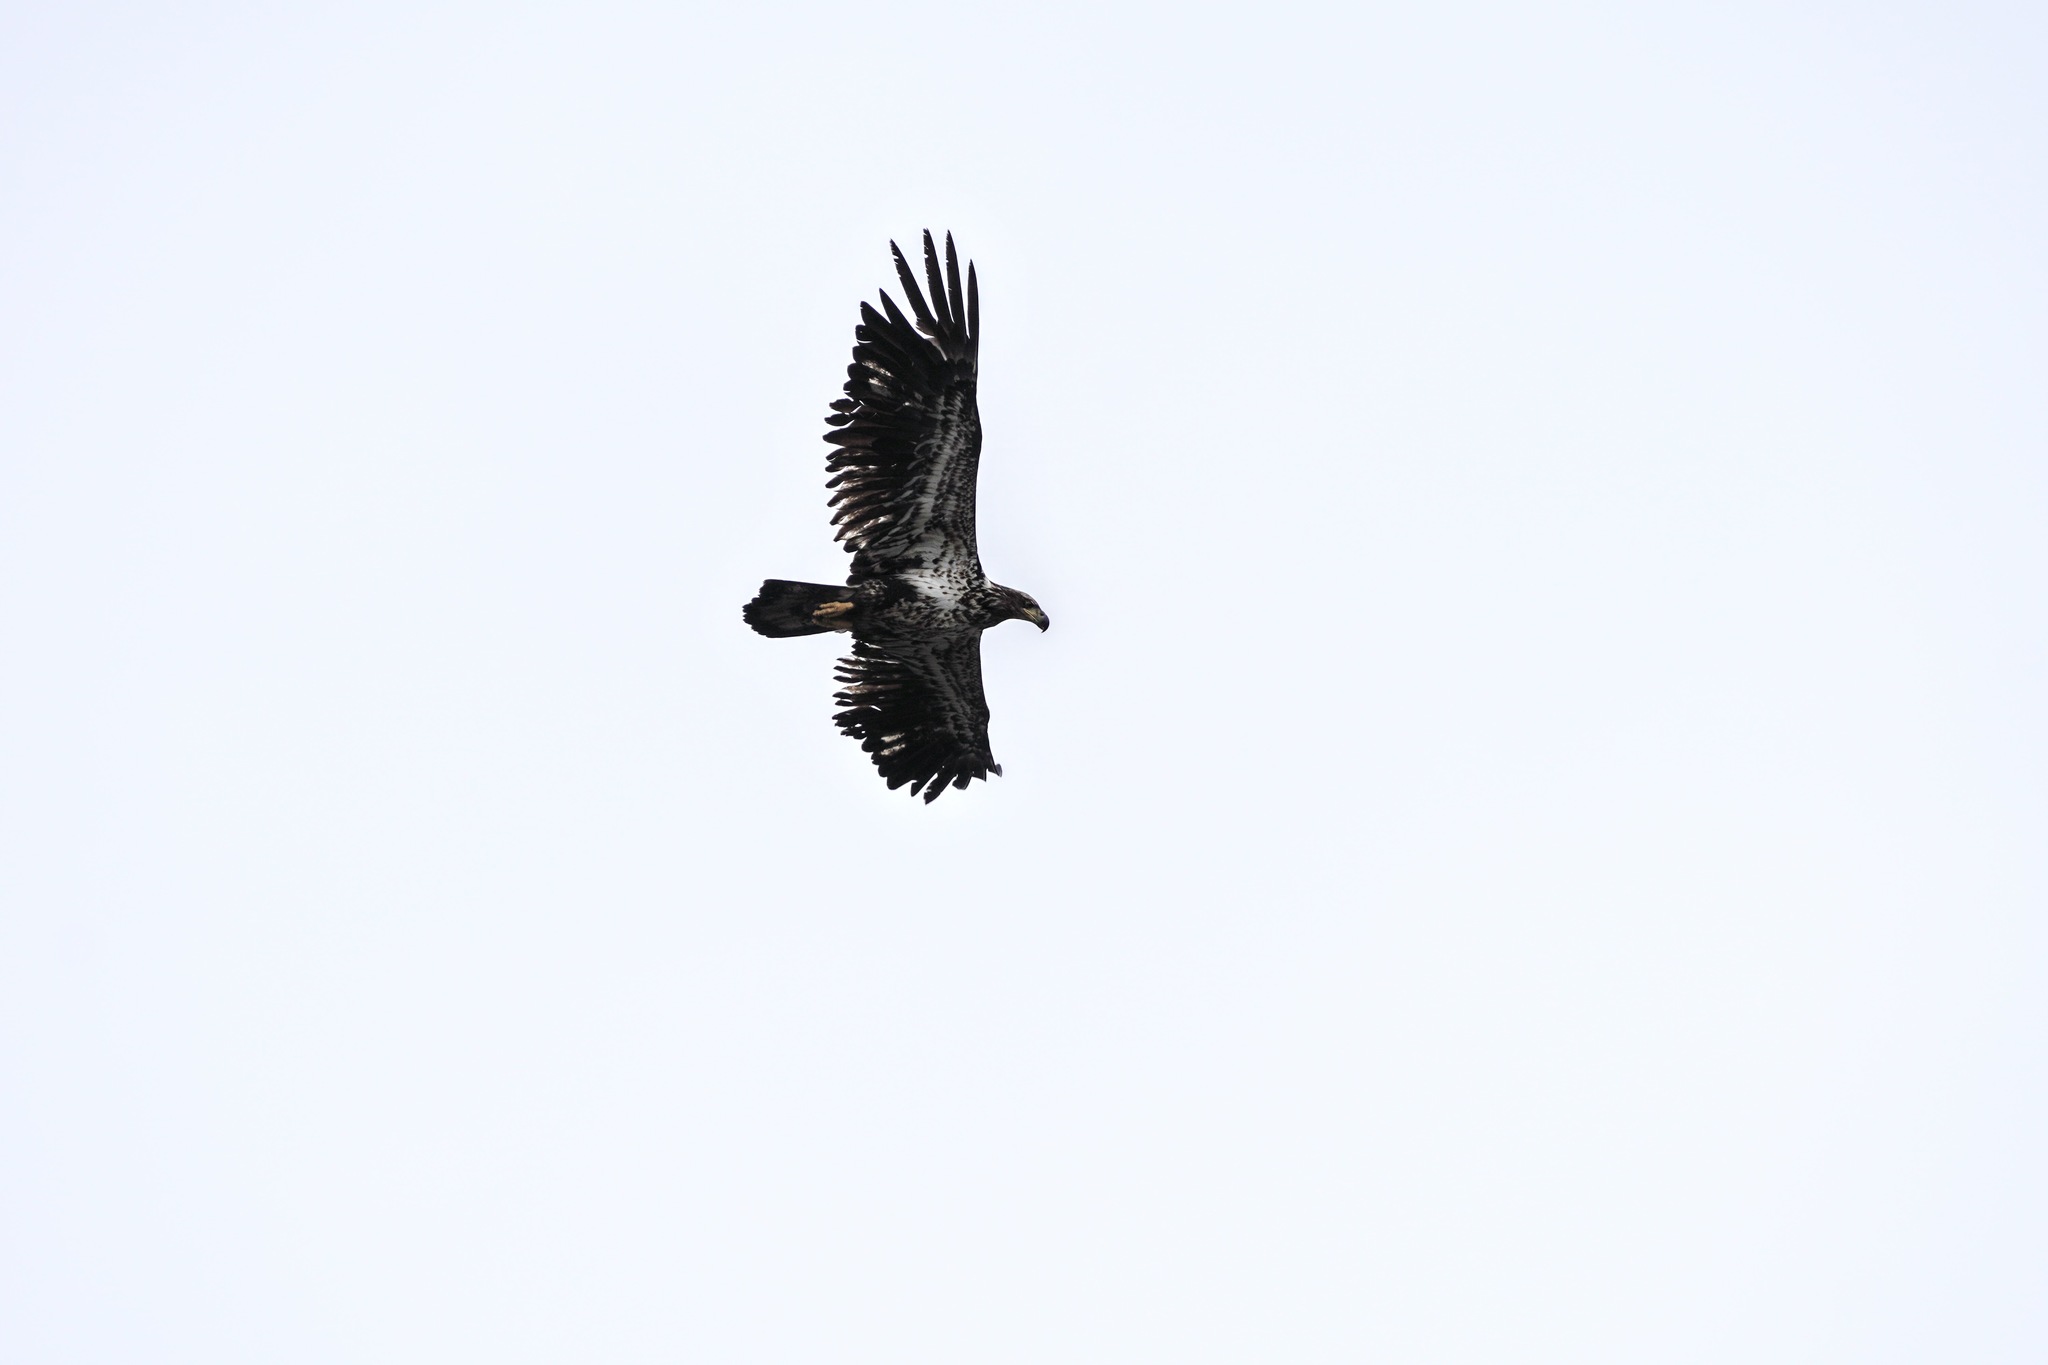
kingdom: Animalia
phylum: Chordata
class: Aves
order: Accipitriformes
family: Accipitridae
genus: Haliaeetus
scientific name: Haliaeetus leucocephalus
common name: Bald eagle
